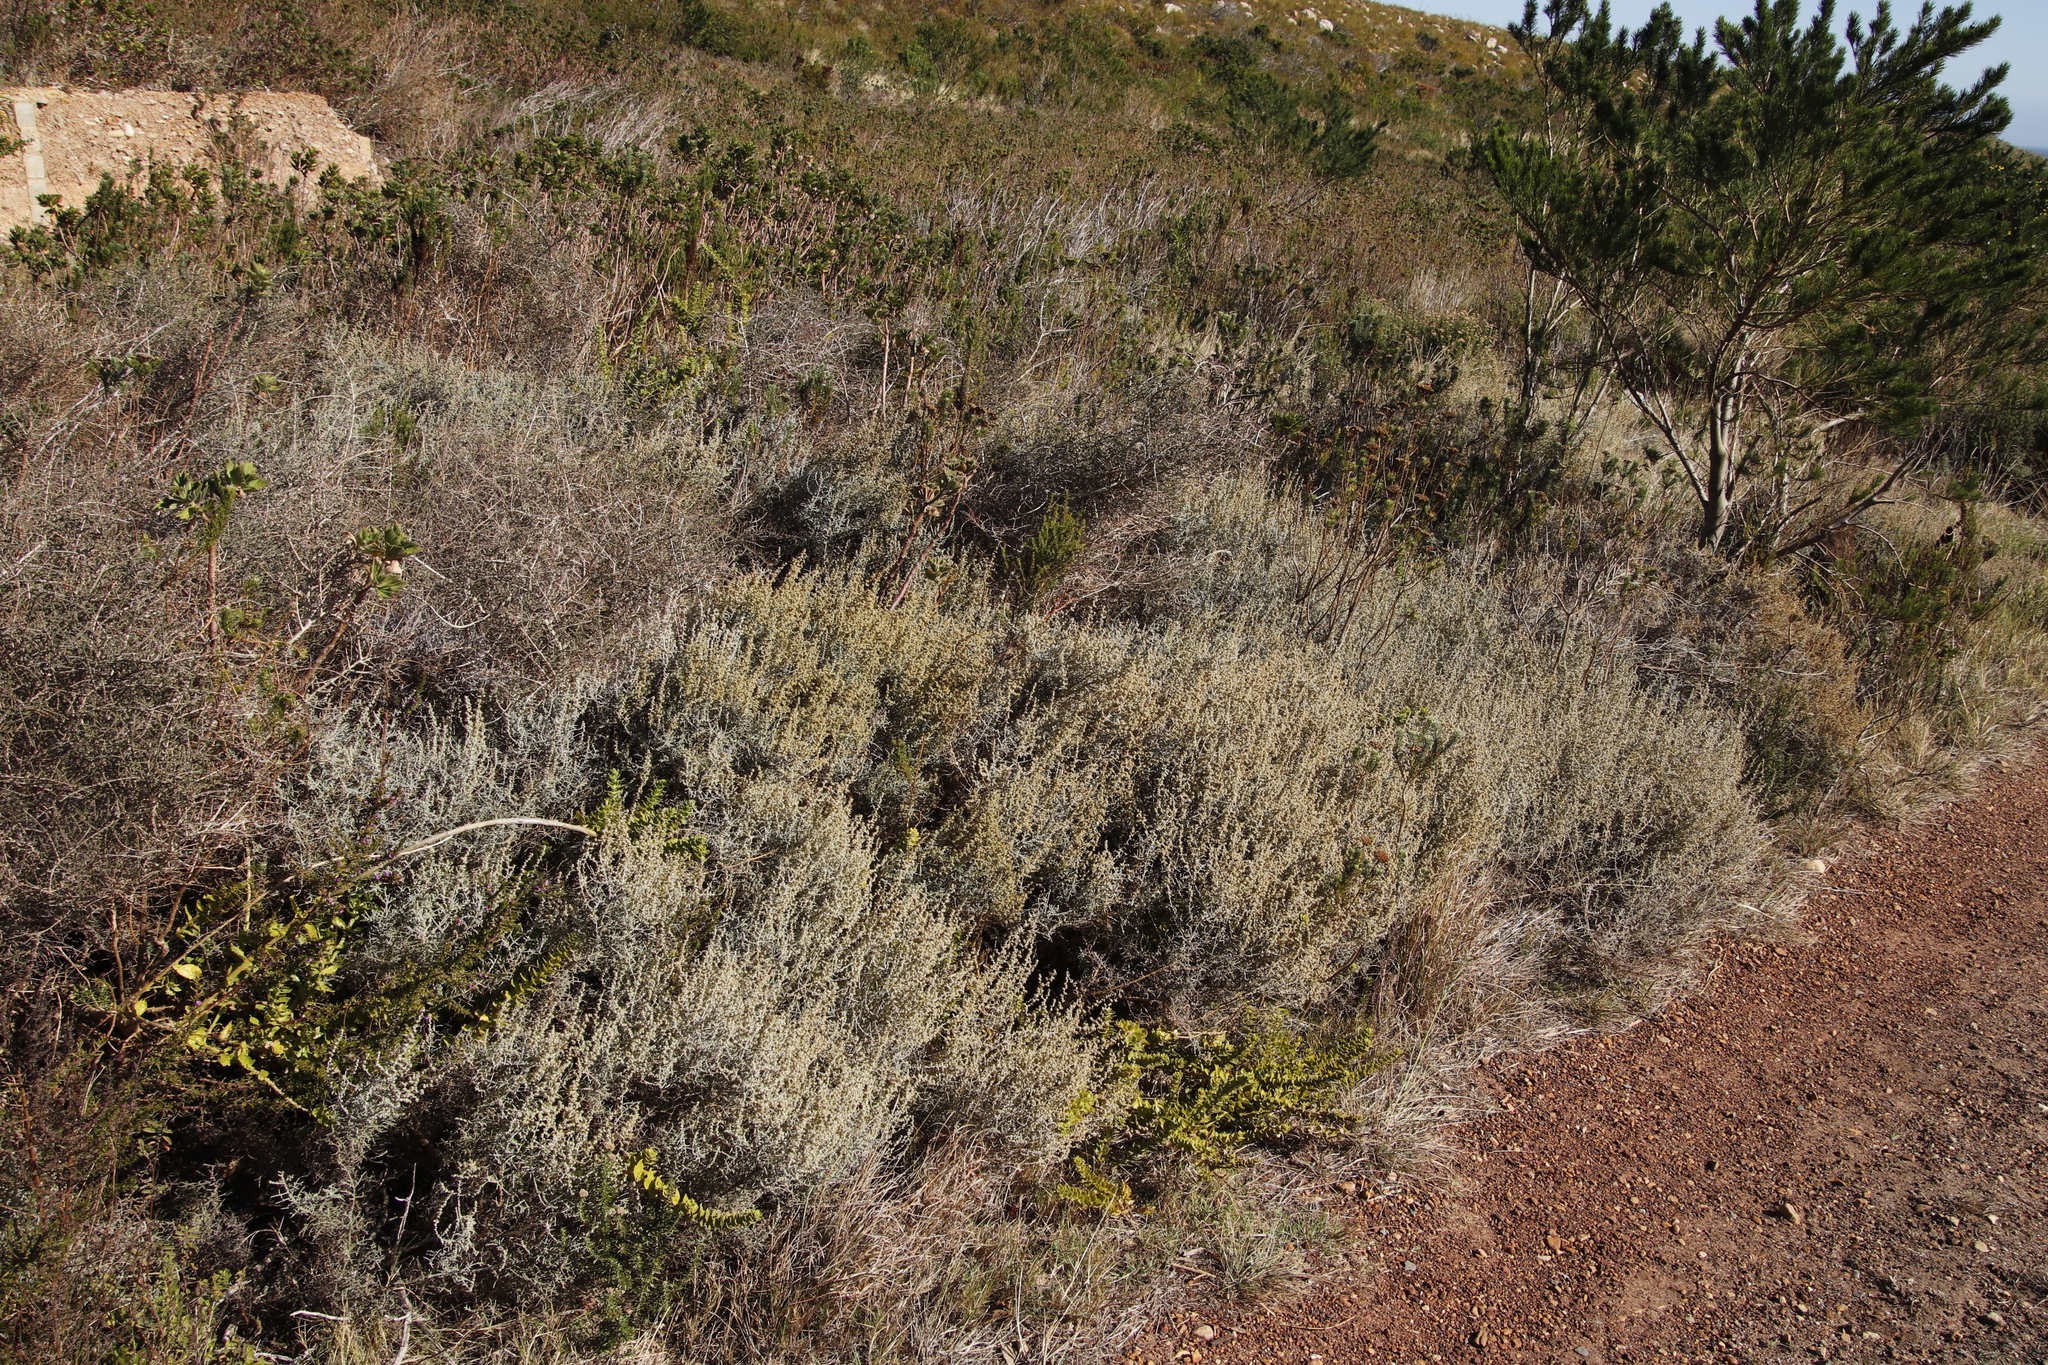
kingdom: Plantae
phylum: Tracheophyta
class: Magnoliopsida
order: Asterales
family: Asteraceae
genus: Seriphium
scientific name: Seriphium plumosum
